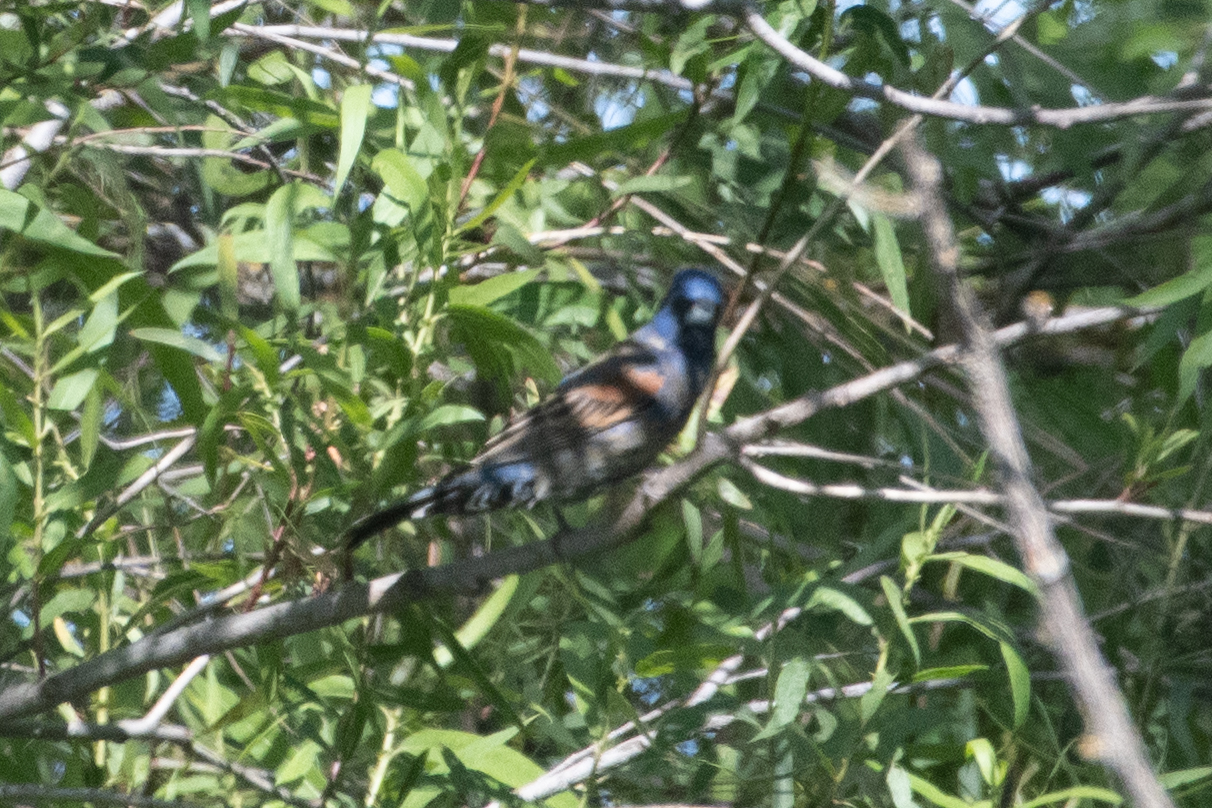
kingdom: Animalia
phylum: Chordata
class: Aves
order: Passeriformes
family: Cardinalidae
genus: Passerina
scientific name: Passerina caerulea
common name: Blue grosbeak
